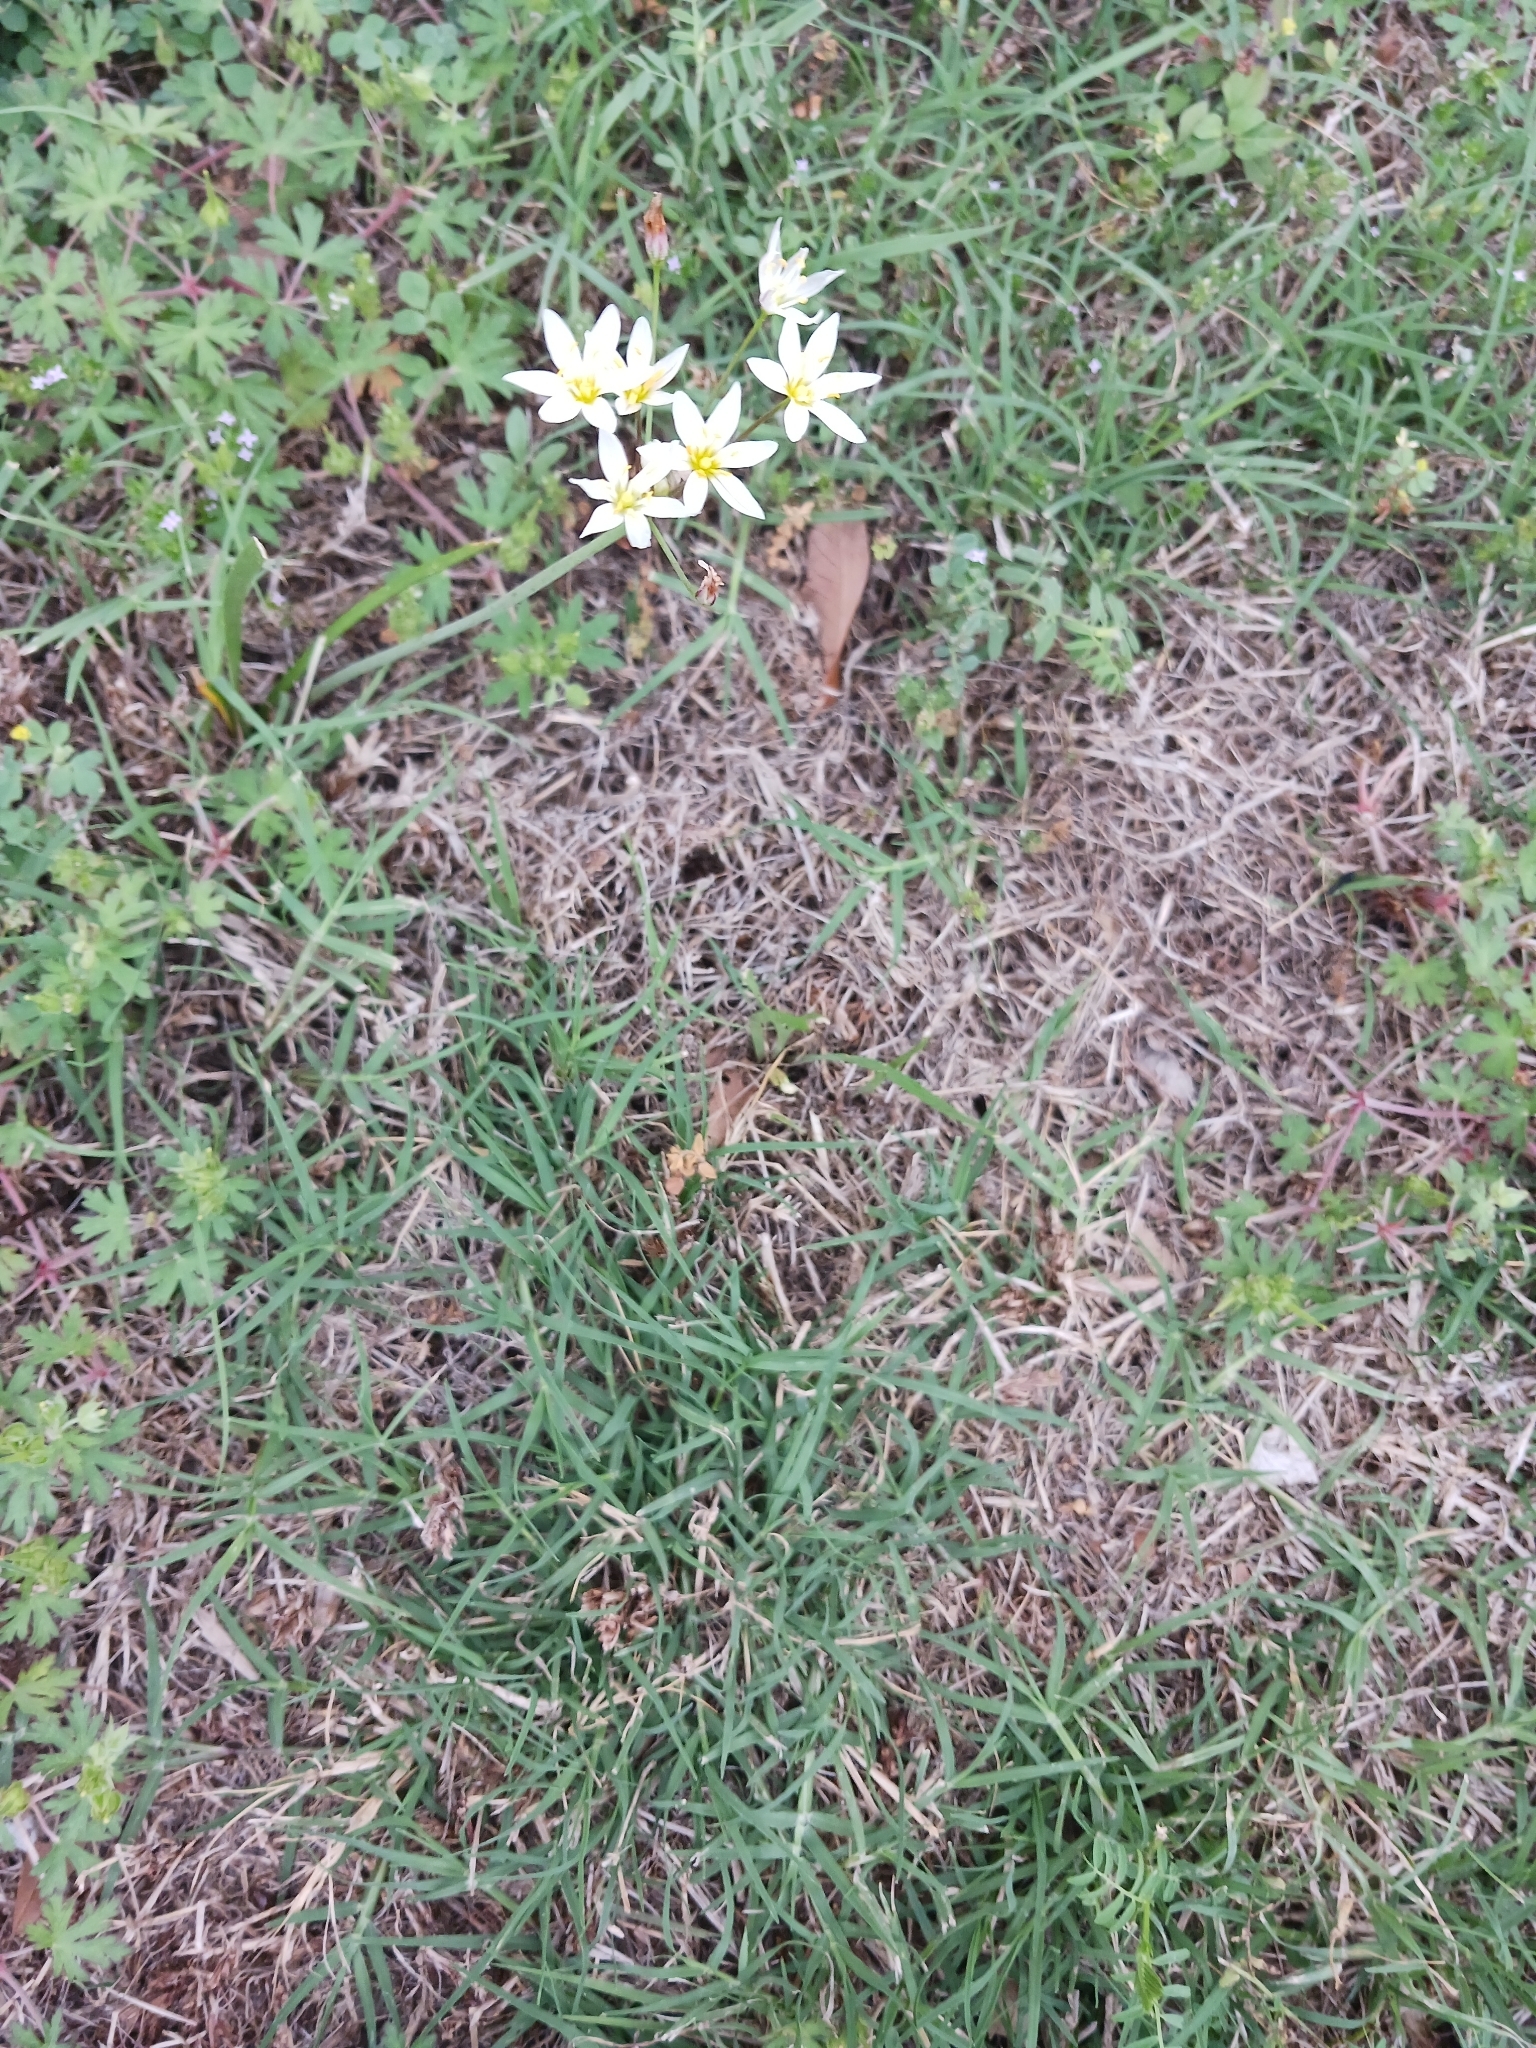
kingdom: Plantae
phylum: Tracheophyta
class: Liliopsida
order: Asparagales
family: Amaryllidaceae
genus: Nothoscordum
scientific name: Nothoscordum bivalve
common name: Crow-poison
